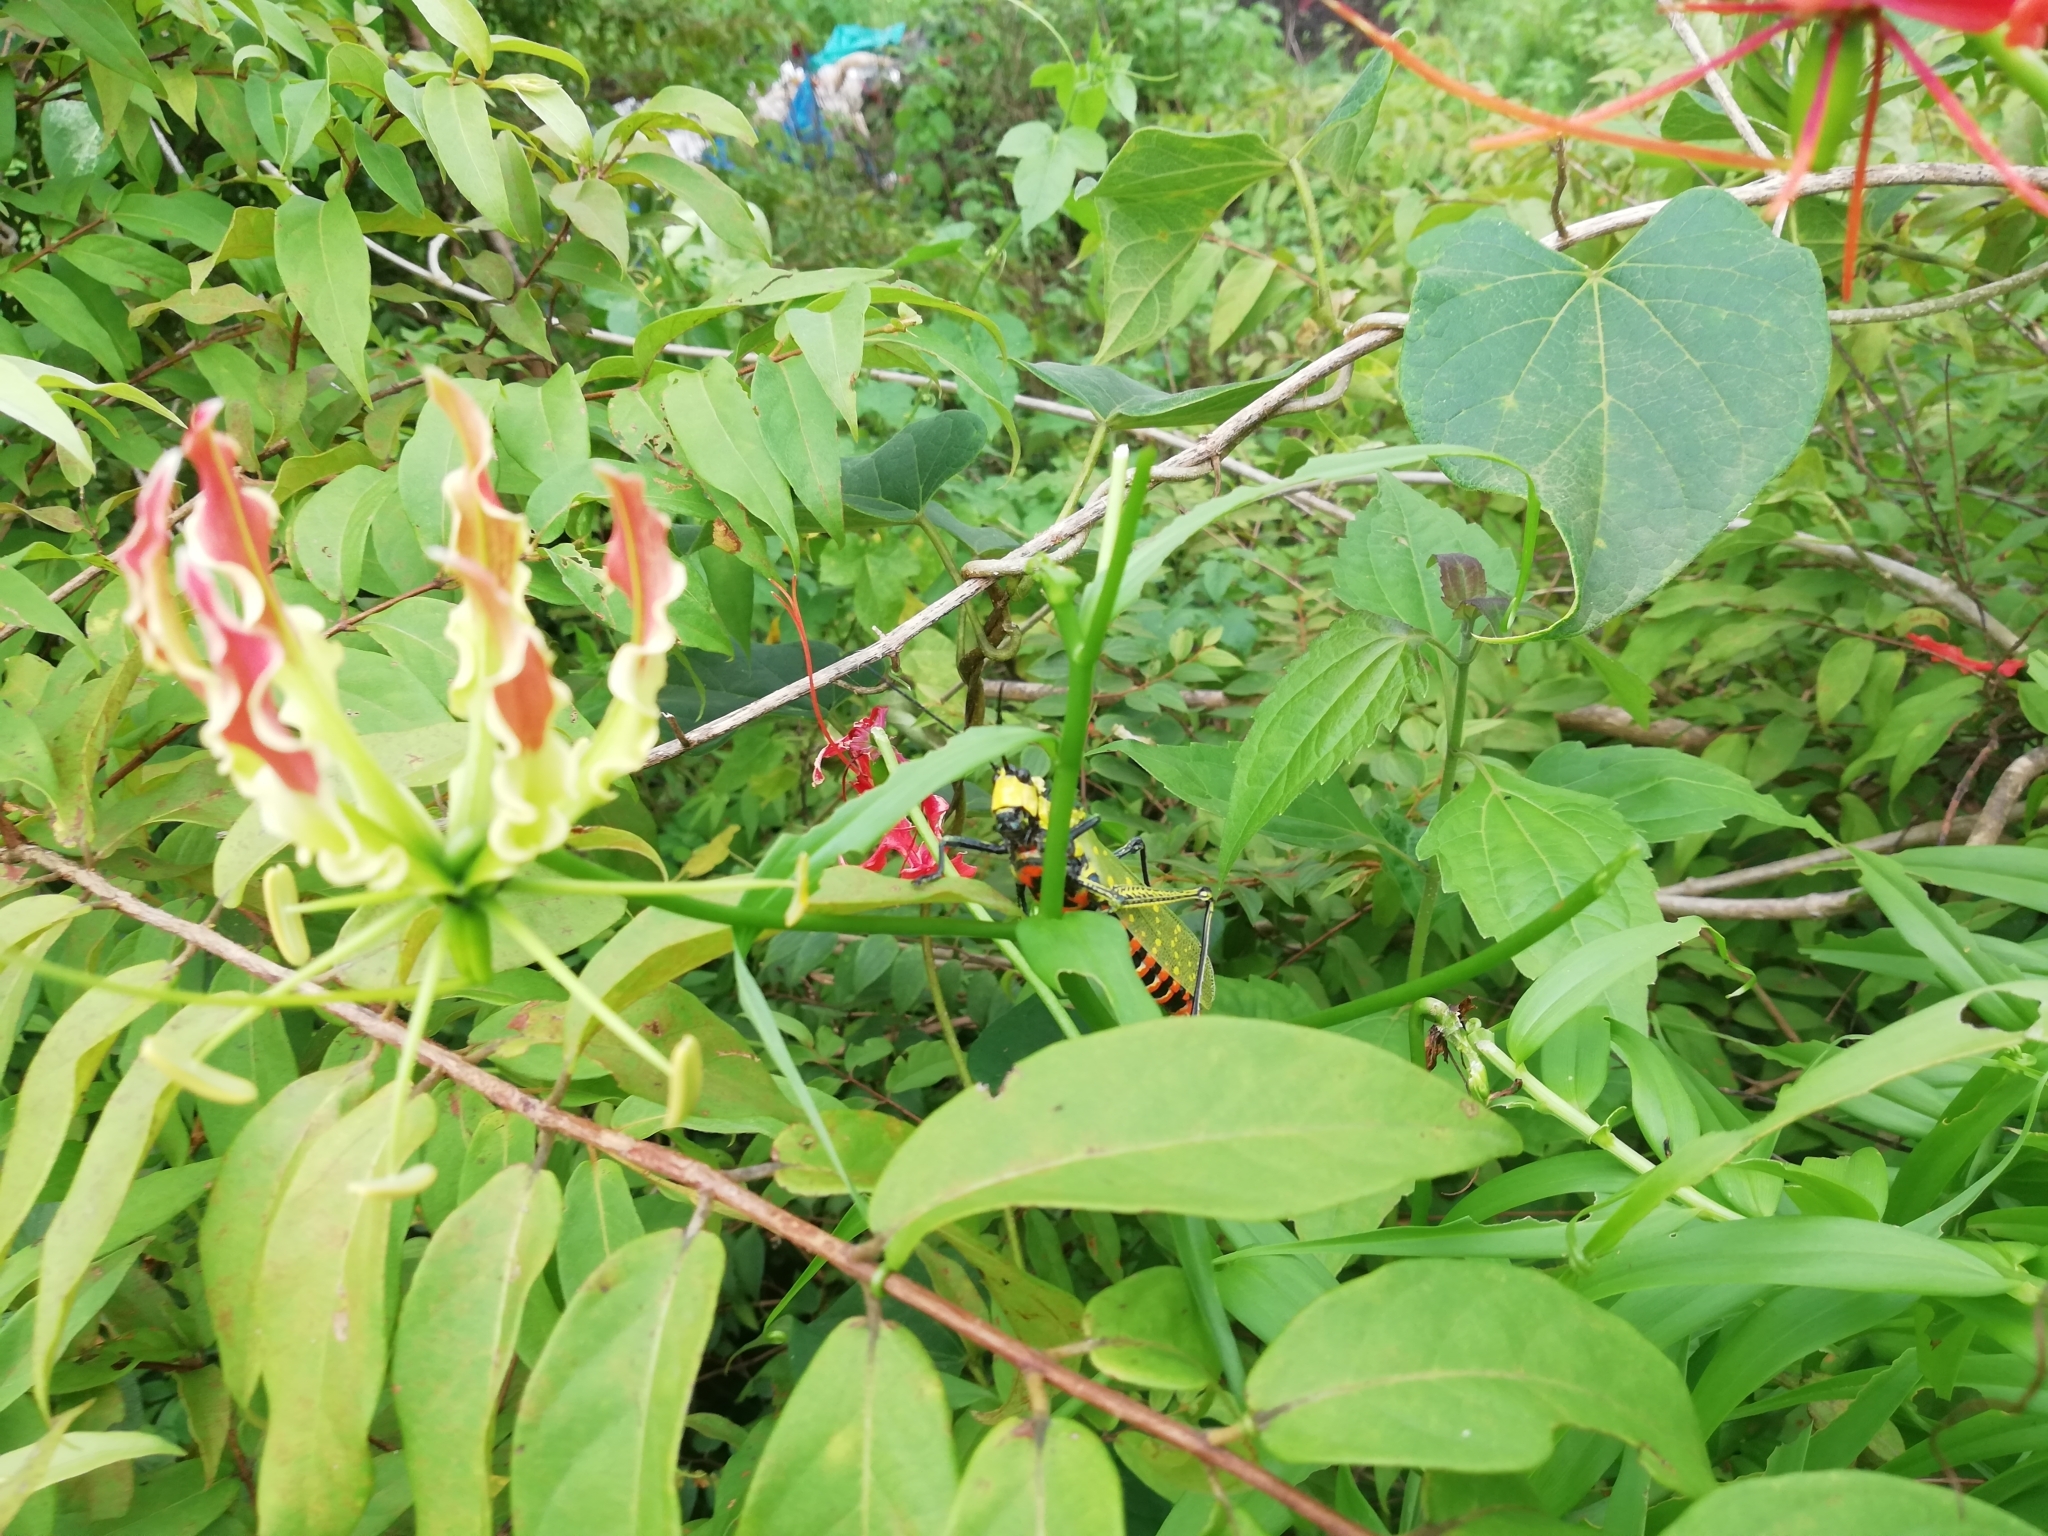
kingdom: Plantae
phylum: Tracheophyta
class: Liliopsida
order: Liliales
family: Colchicaceae
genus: Gloriosa
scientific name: Gloriosa superba
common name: Flame lily
